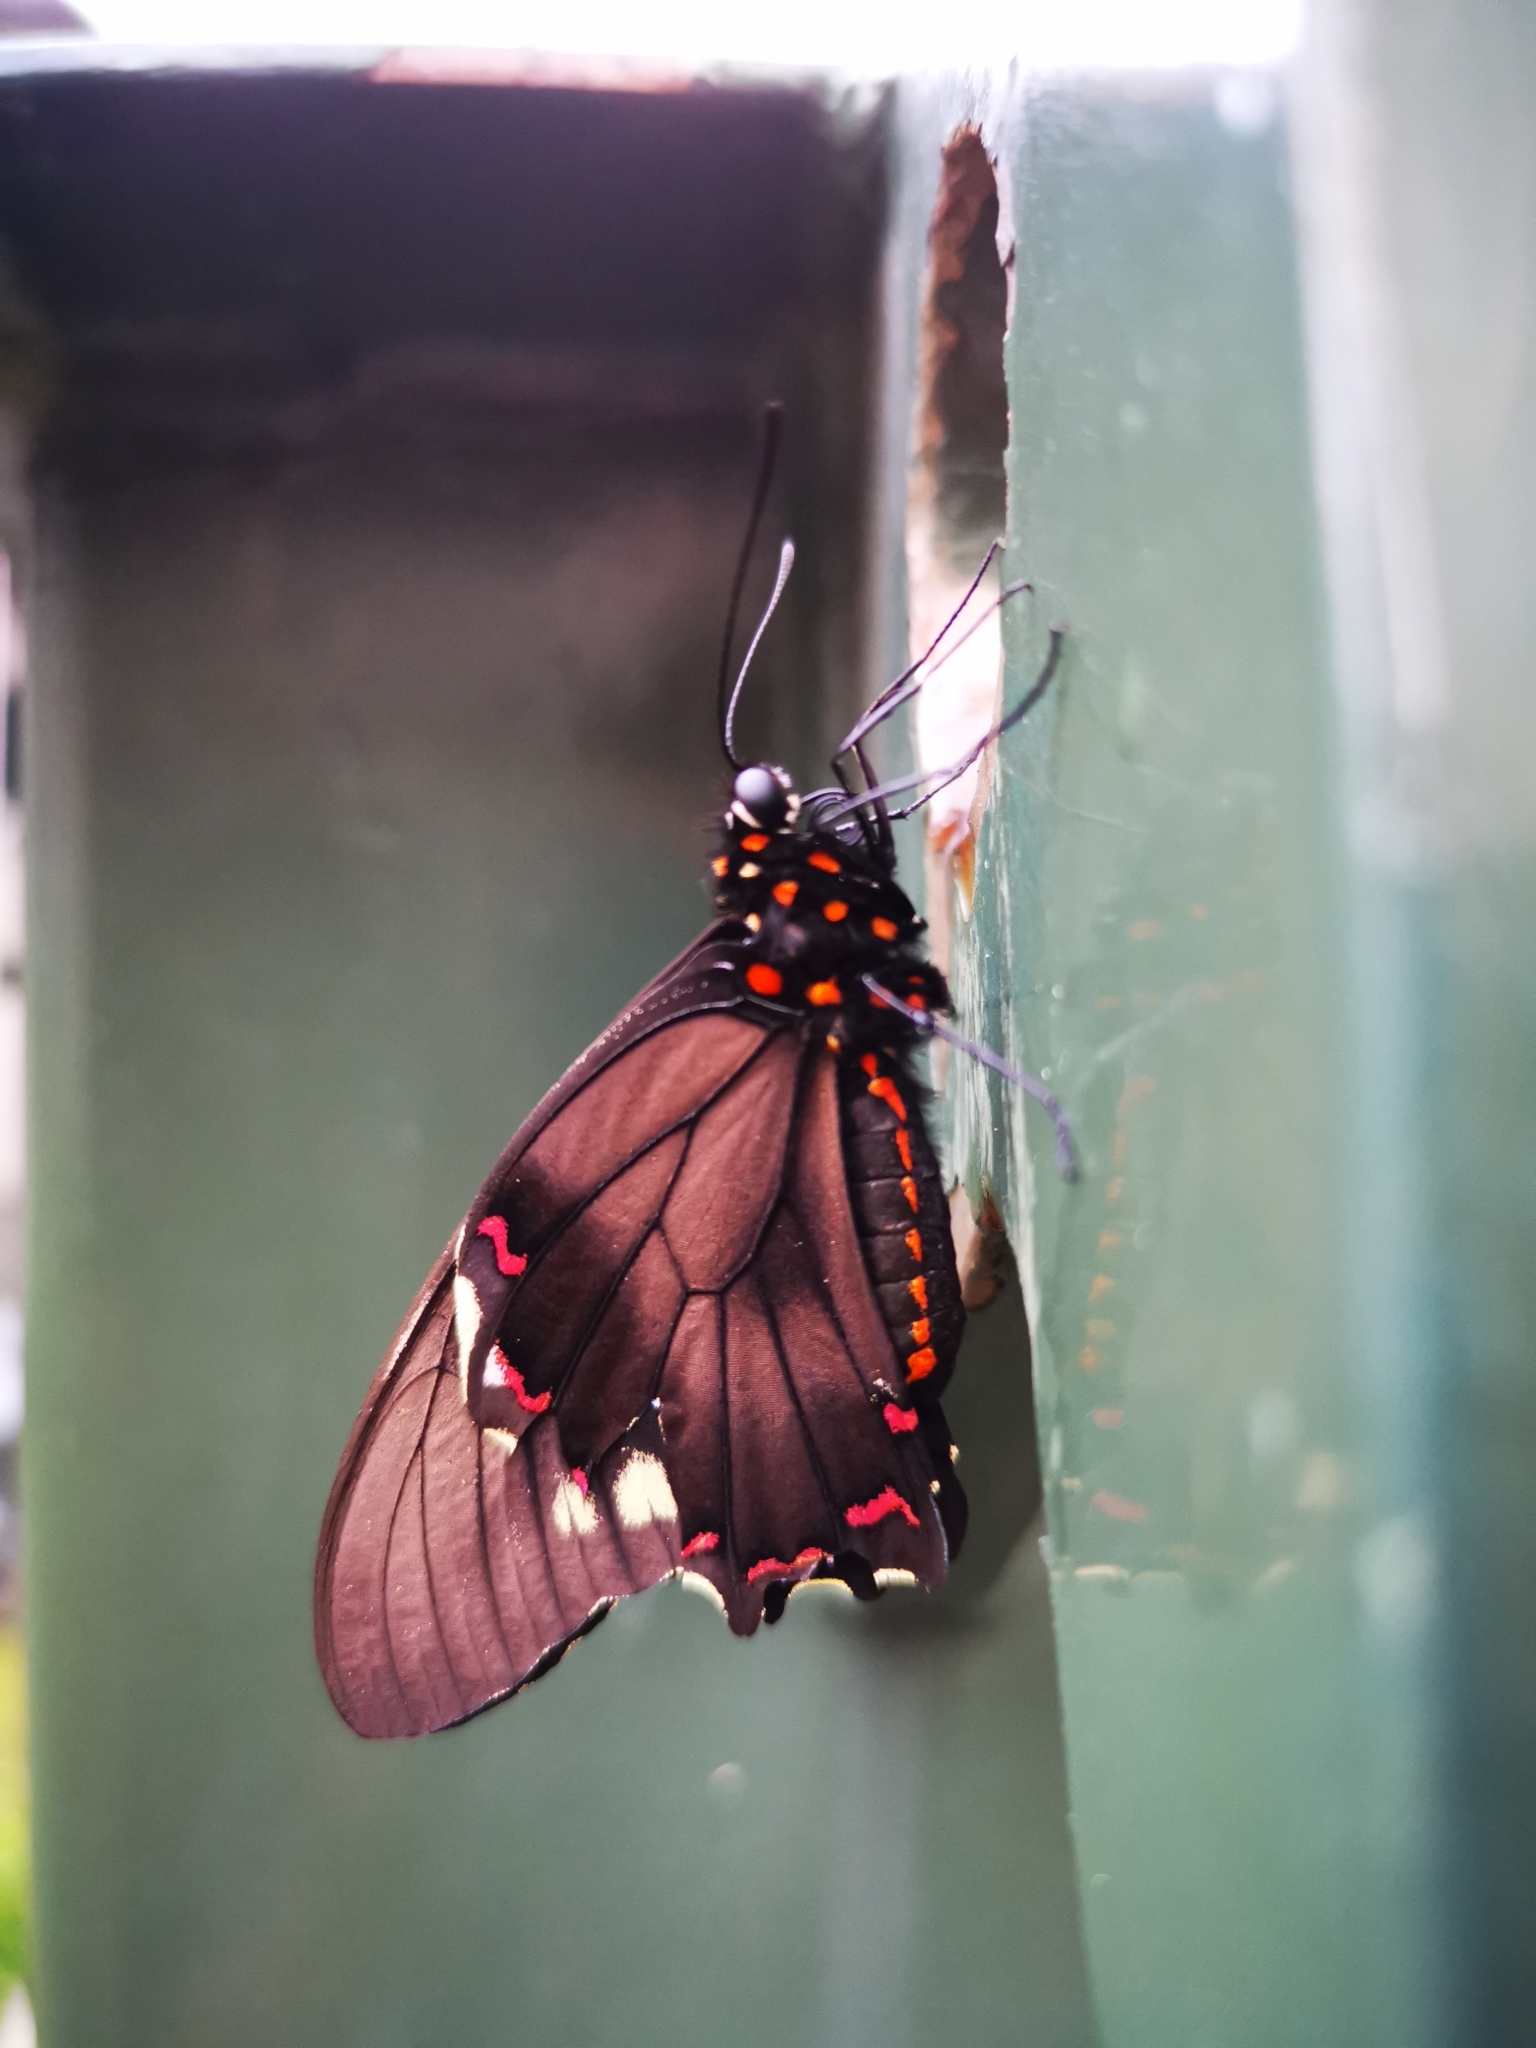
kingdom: Animalia
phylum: Arthropoda
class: Insecta
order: Lepidoptera
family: Papilionidae
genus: Battus
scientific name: Battus polydamas
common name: Polydamas swallowtail
